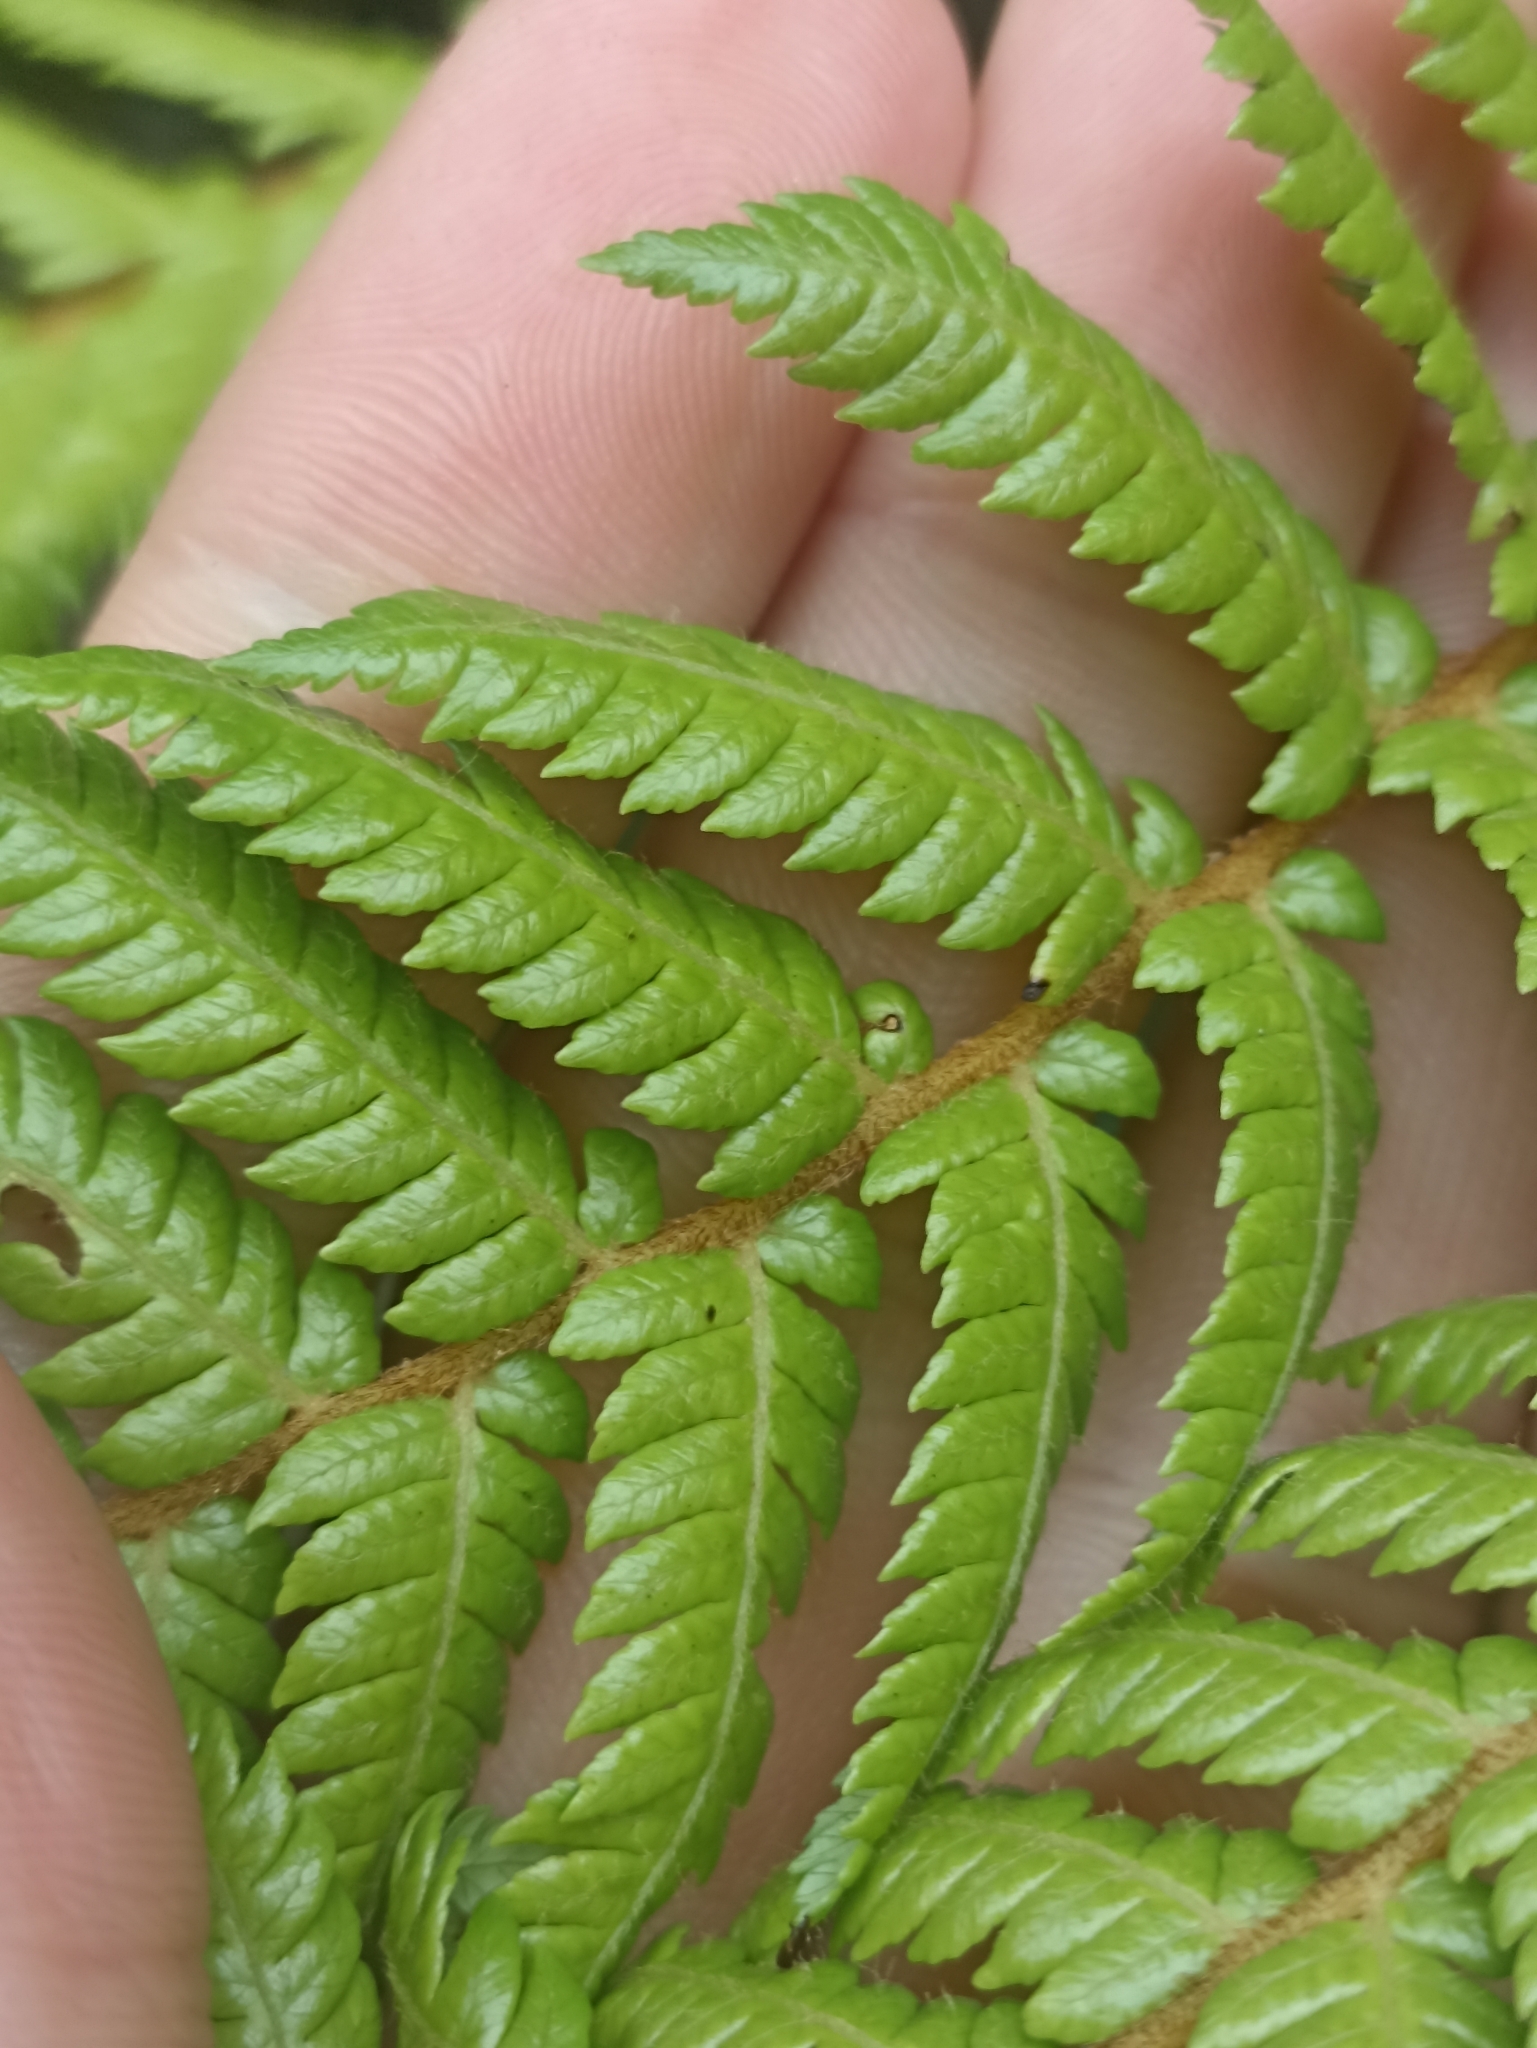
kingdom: Plantae
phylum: Tracheophyta
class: Polypodiopsida
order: Cyatheales
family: Cyatheaceae
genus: Alsophila
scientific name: Alsophila smithii
